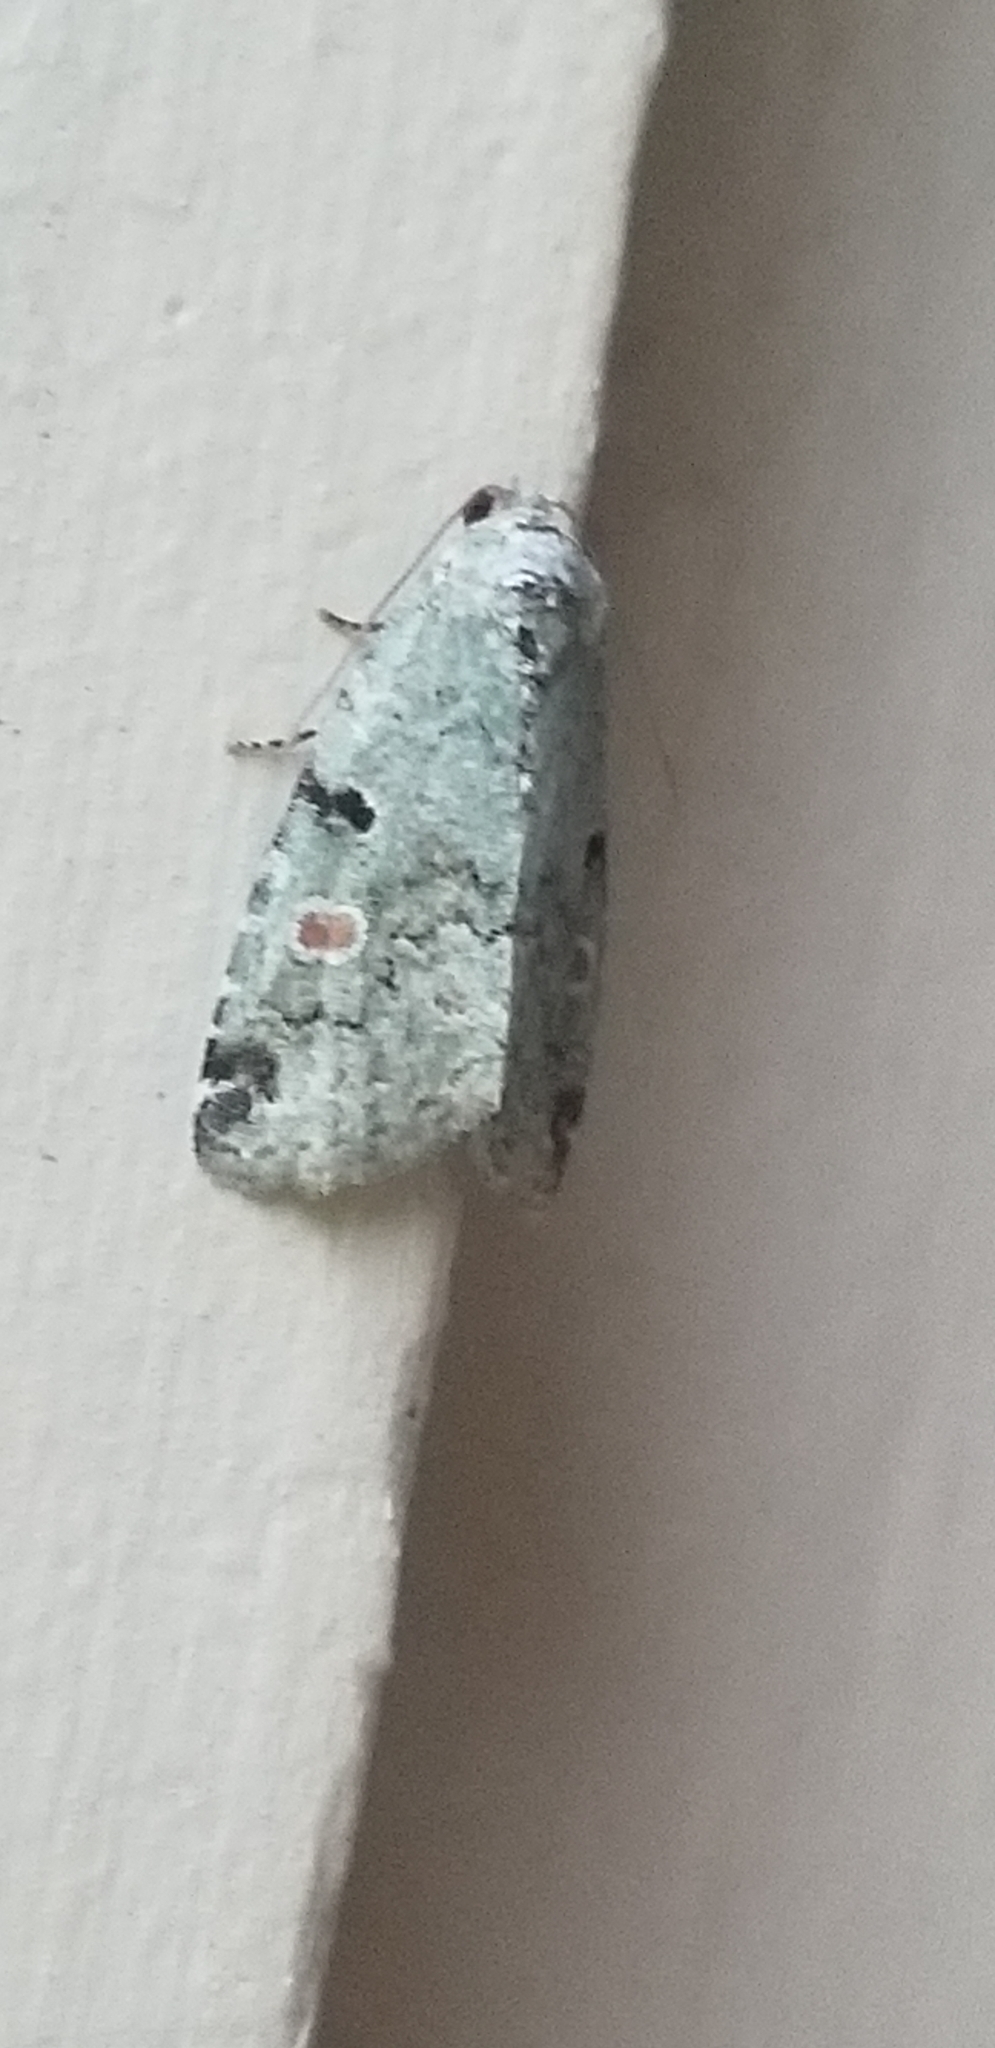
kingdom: Animalia
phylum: Arthropoda
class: Insecta
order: Lepidoptera
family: Noctuidae
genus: Maliattha
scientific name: Maliattha concinnimacula
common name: Red-spotted glyph
